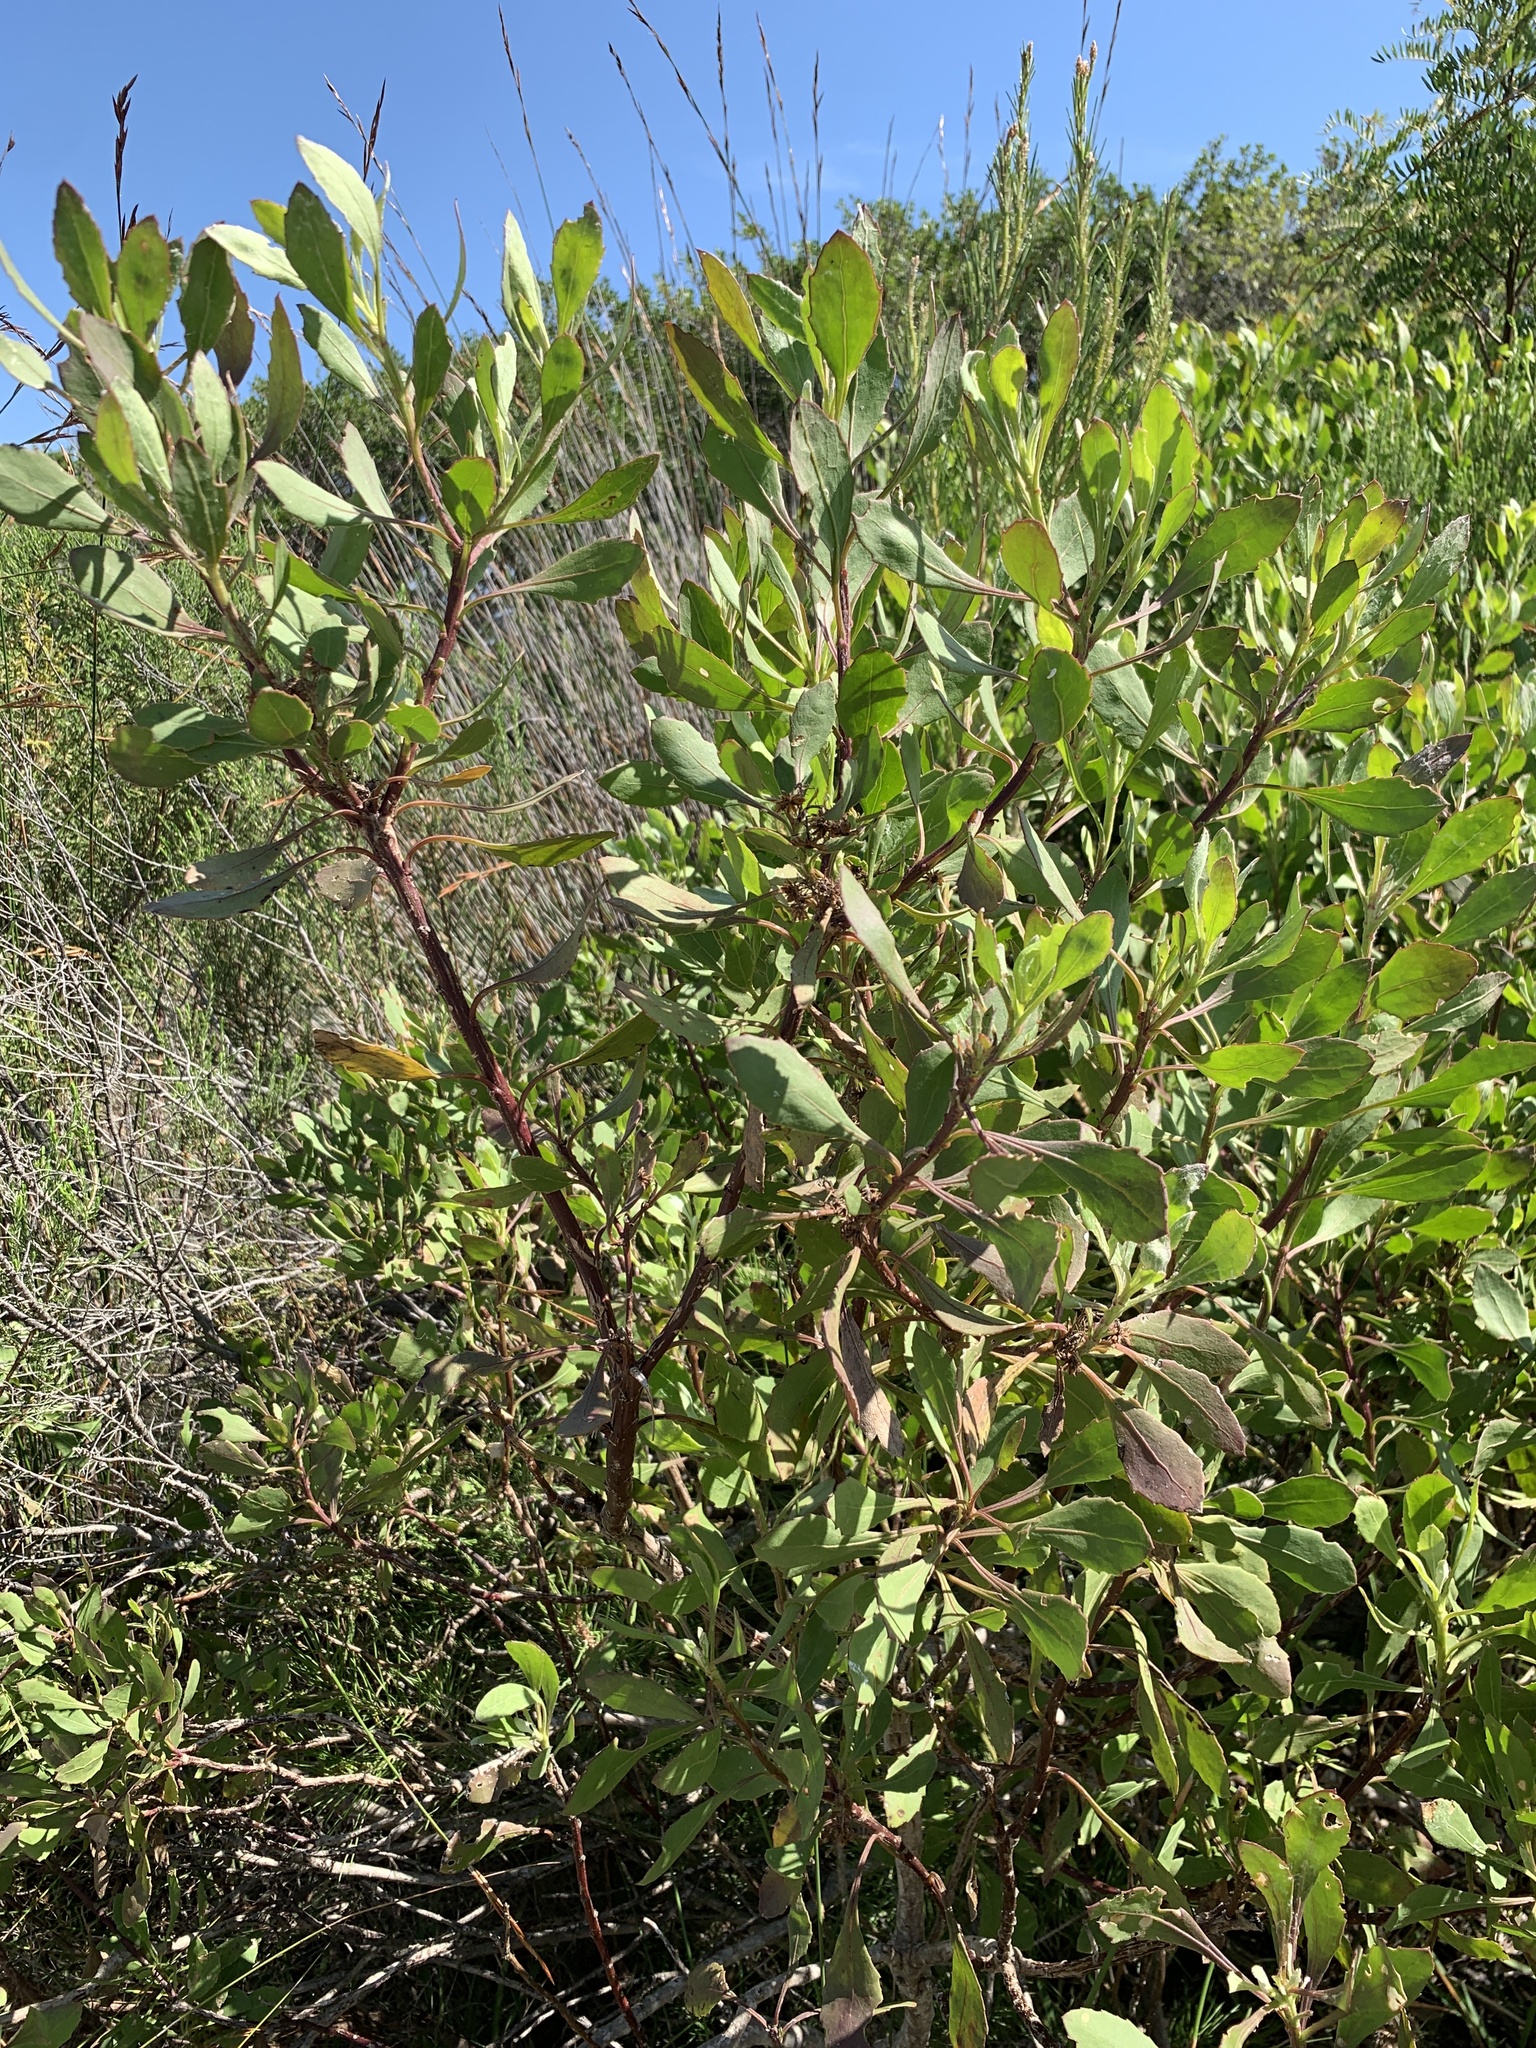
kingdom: Plantae
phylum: Tracheophyta
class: Magnoliopsida
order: Asterales
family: Asteraceae
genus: Osteospermum
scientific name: Osteospermum moniliferum
